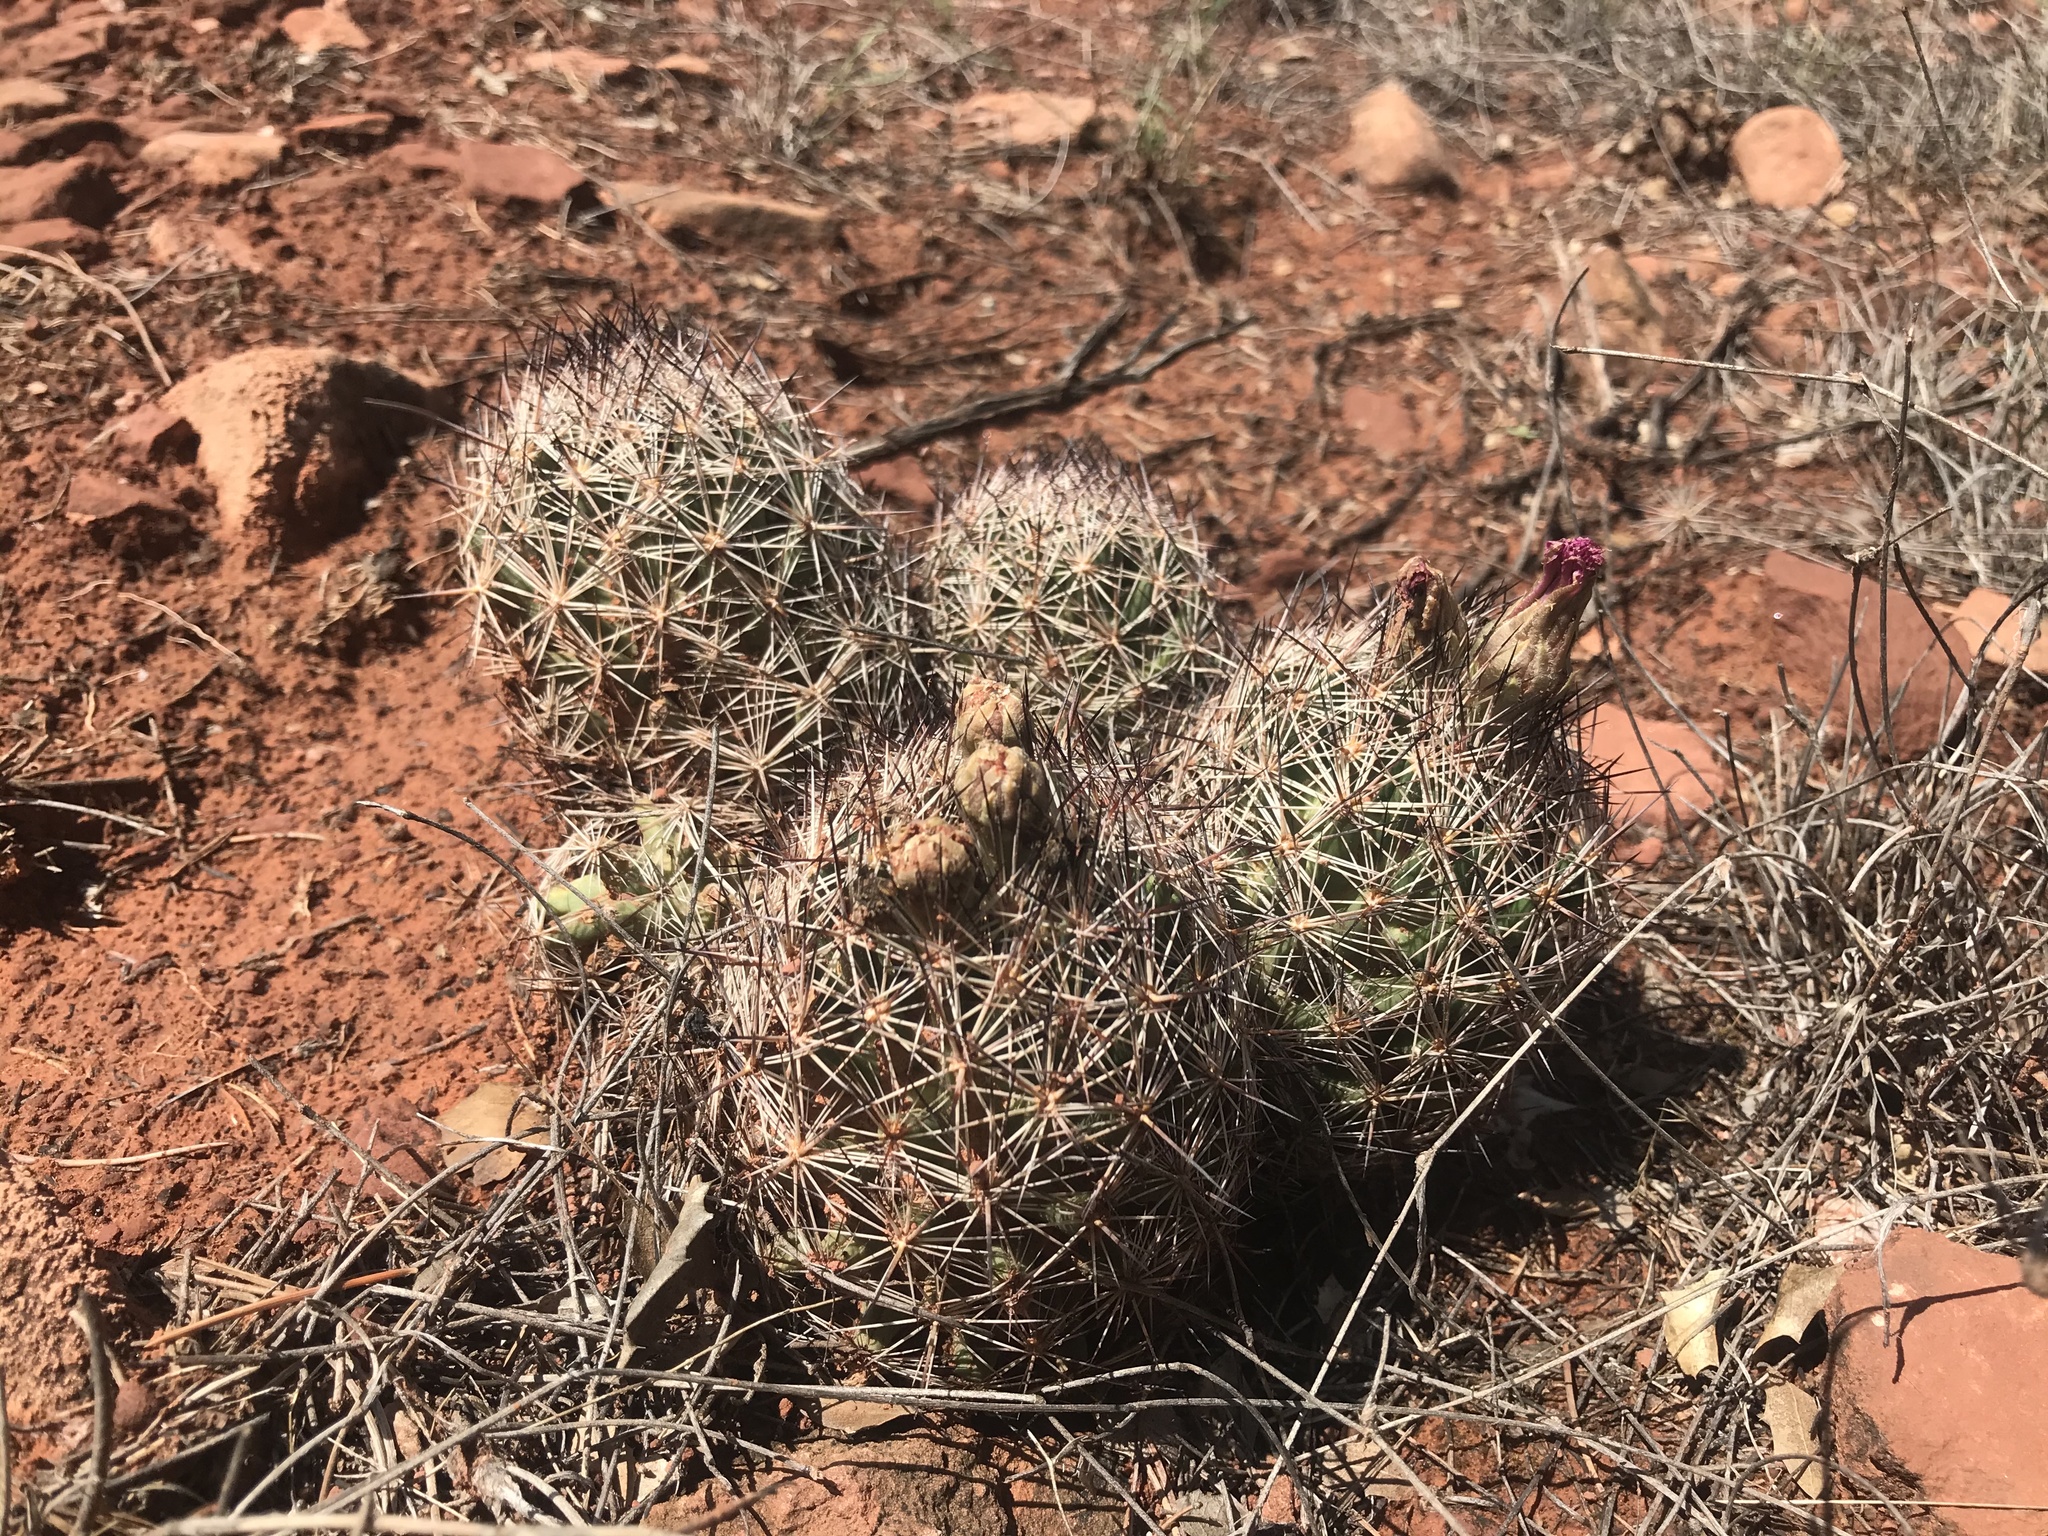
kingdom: Plantae
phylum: Tracheophyta
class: Magnoliopsida
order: Caryophyllales
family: Cactaceae
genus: Pelecyphora
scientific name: Pelecyphora vivipara
